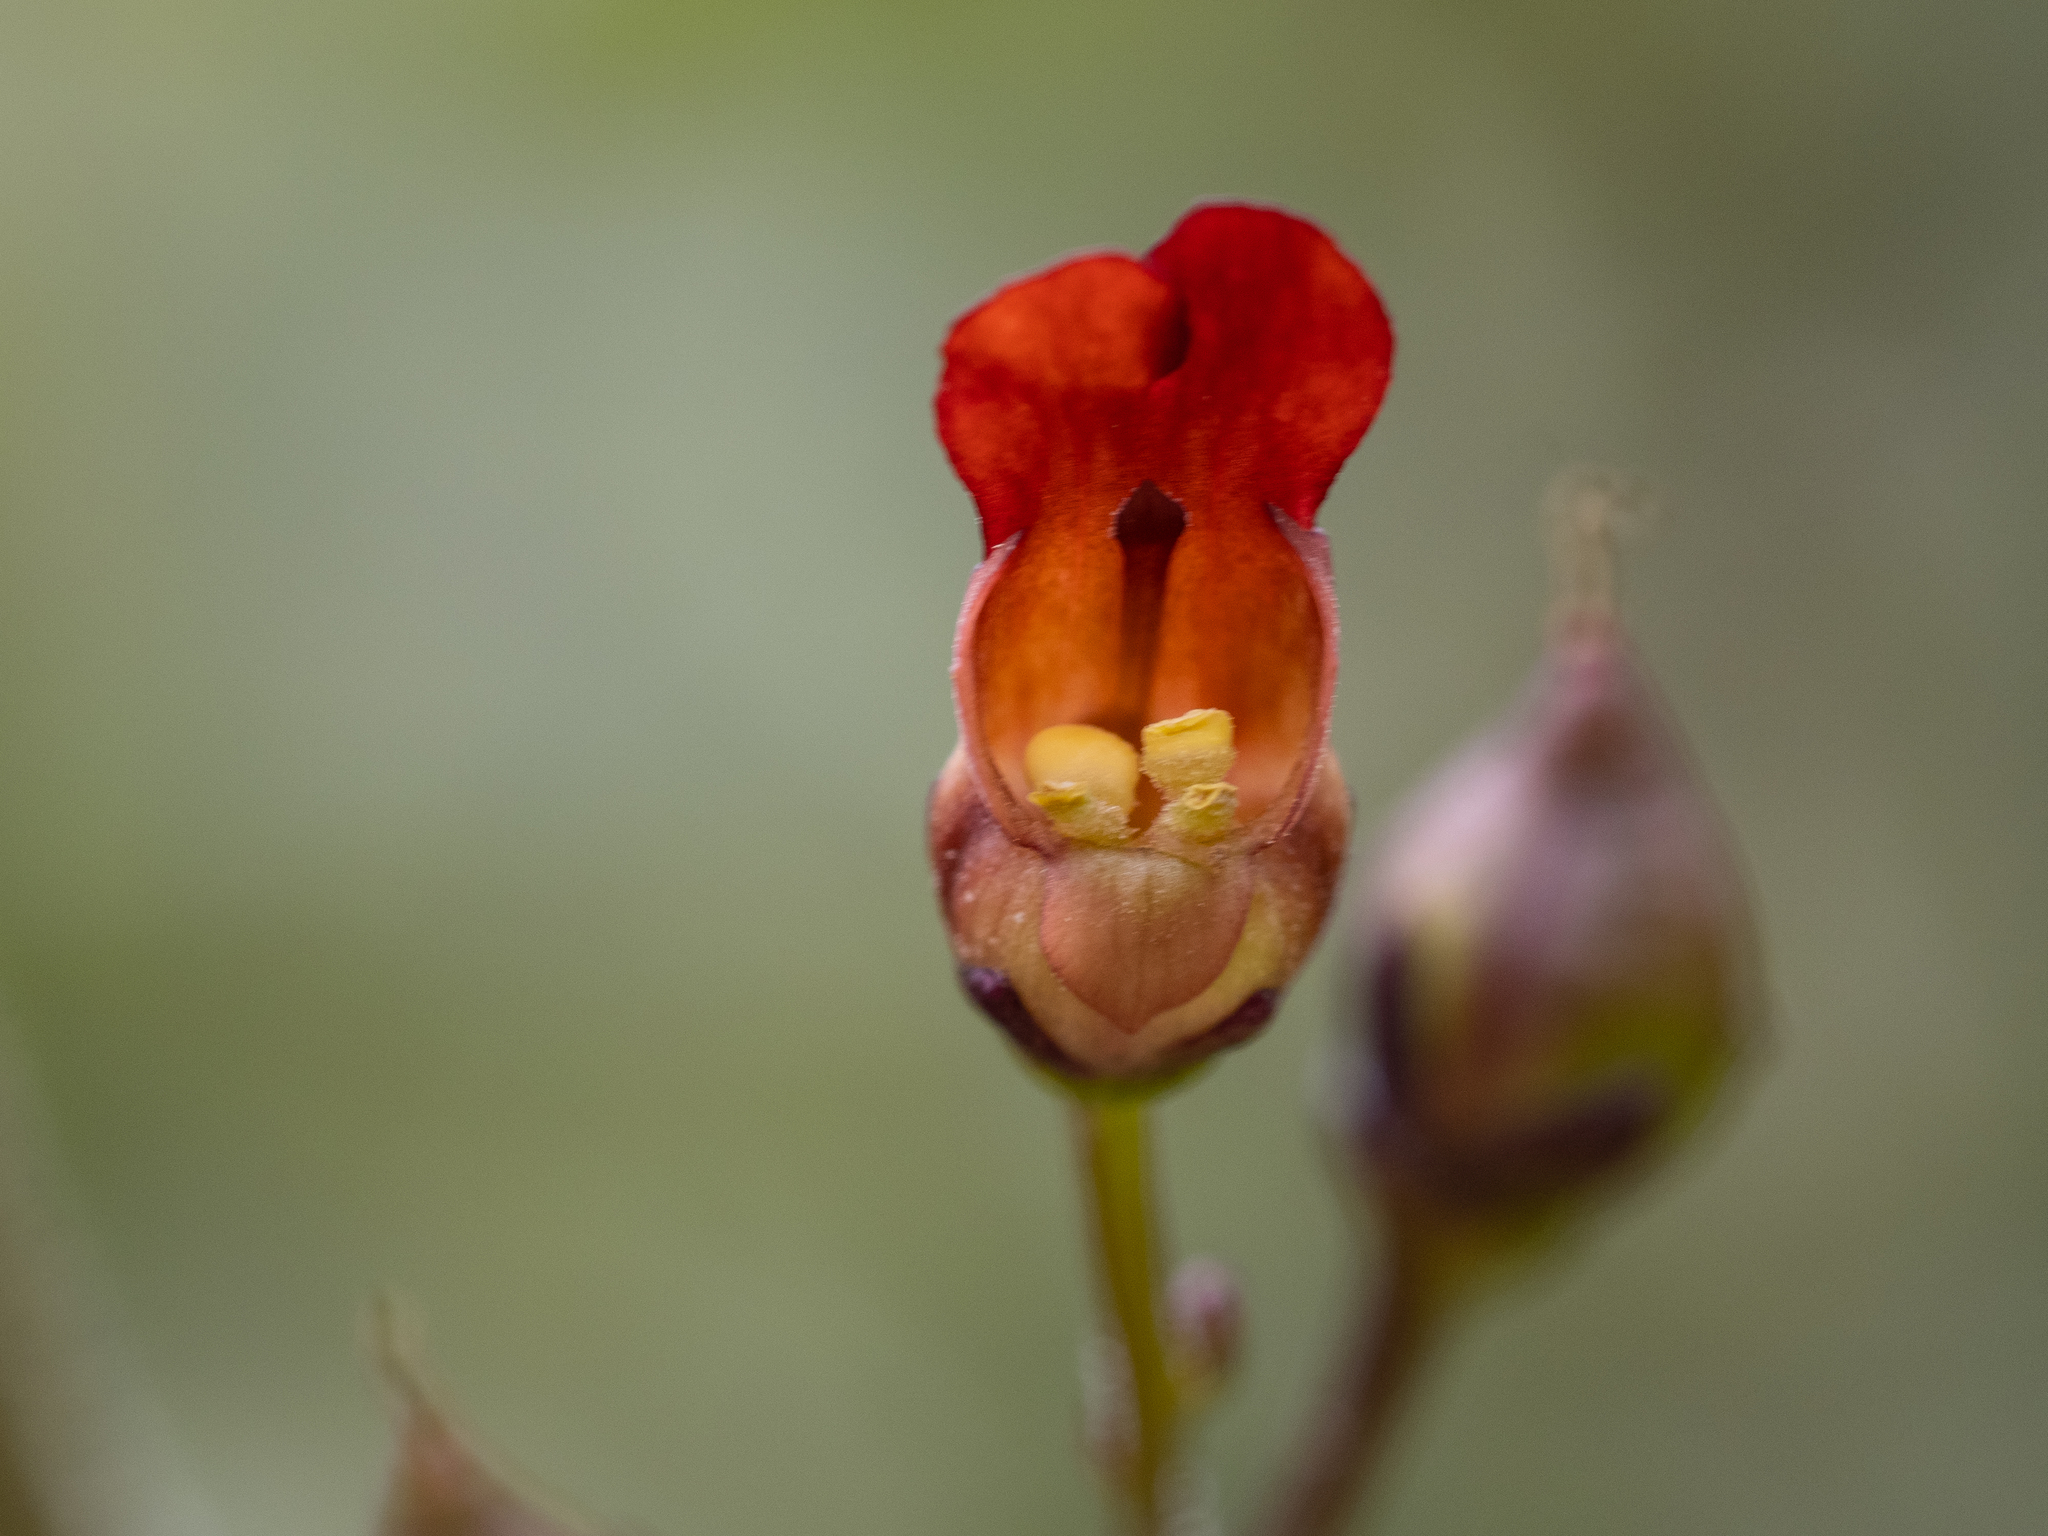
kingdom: Plantae
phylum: Tracheophyta
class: Magnoliopsida
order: Lamiales
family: Scrophulariaceae
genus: Scrophularia
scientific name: Scrophularia californica
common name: California figwort
